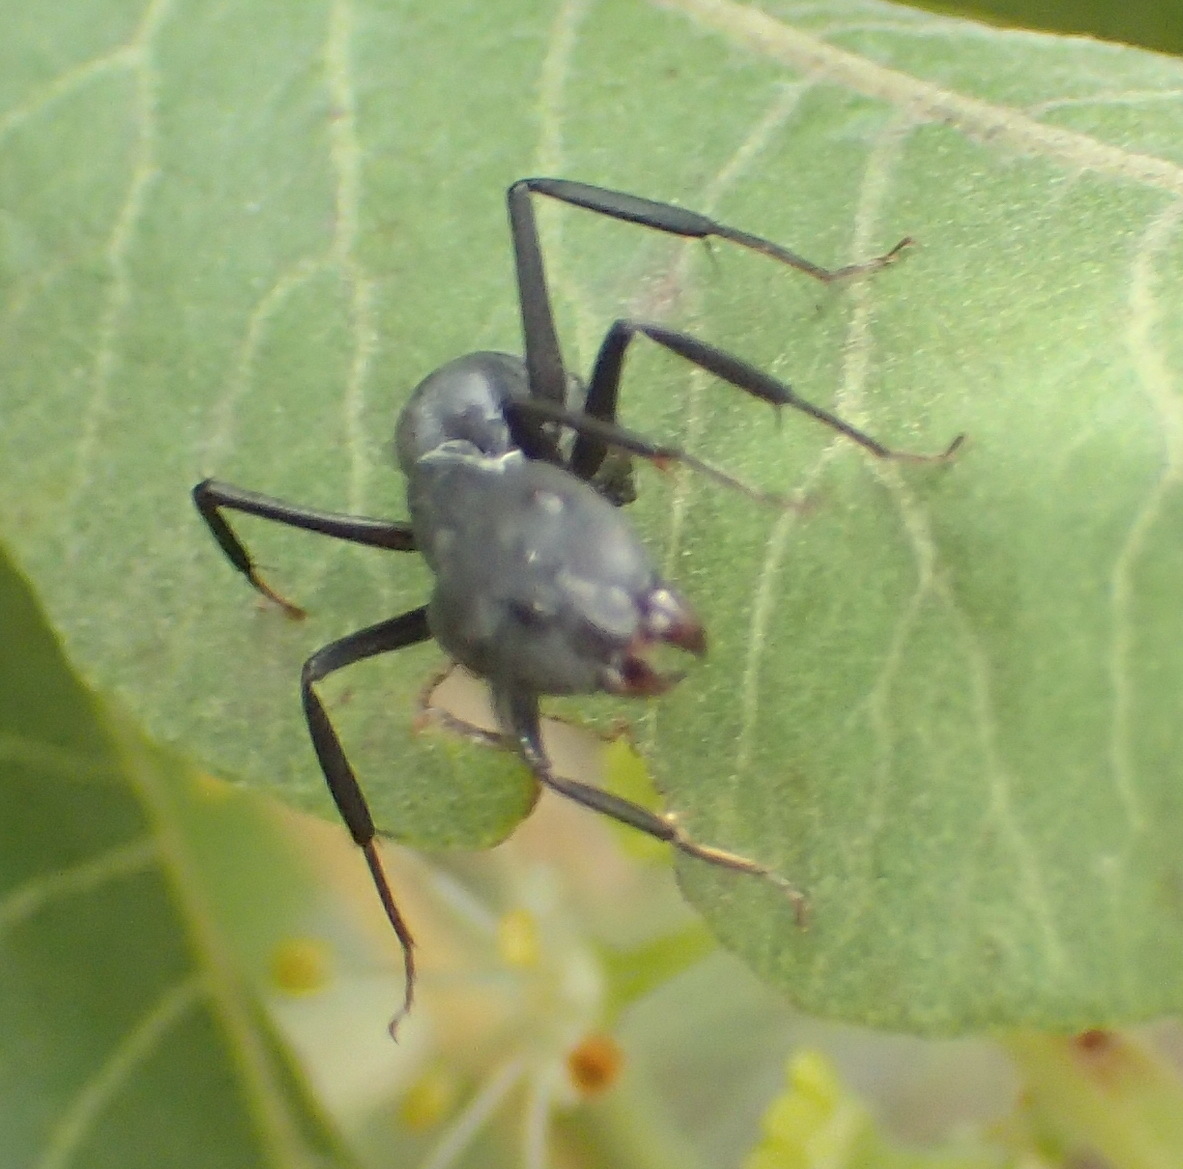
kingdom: Animalia
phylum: Arthropoda
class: Insecta
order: Hymenoptera
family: Formicidae
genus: Polyrhachis
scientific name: Polyrhachis schistacea
